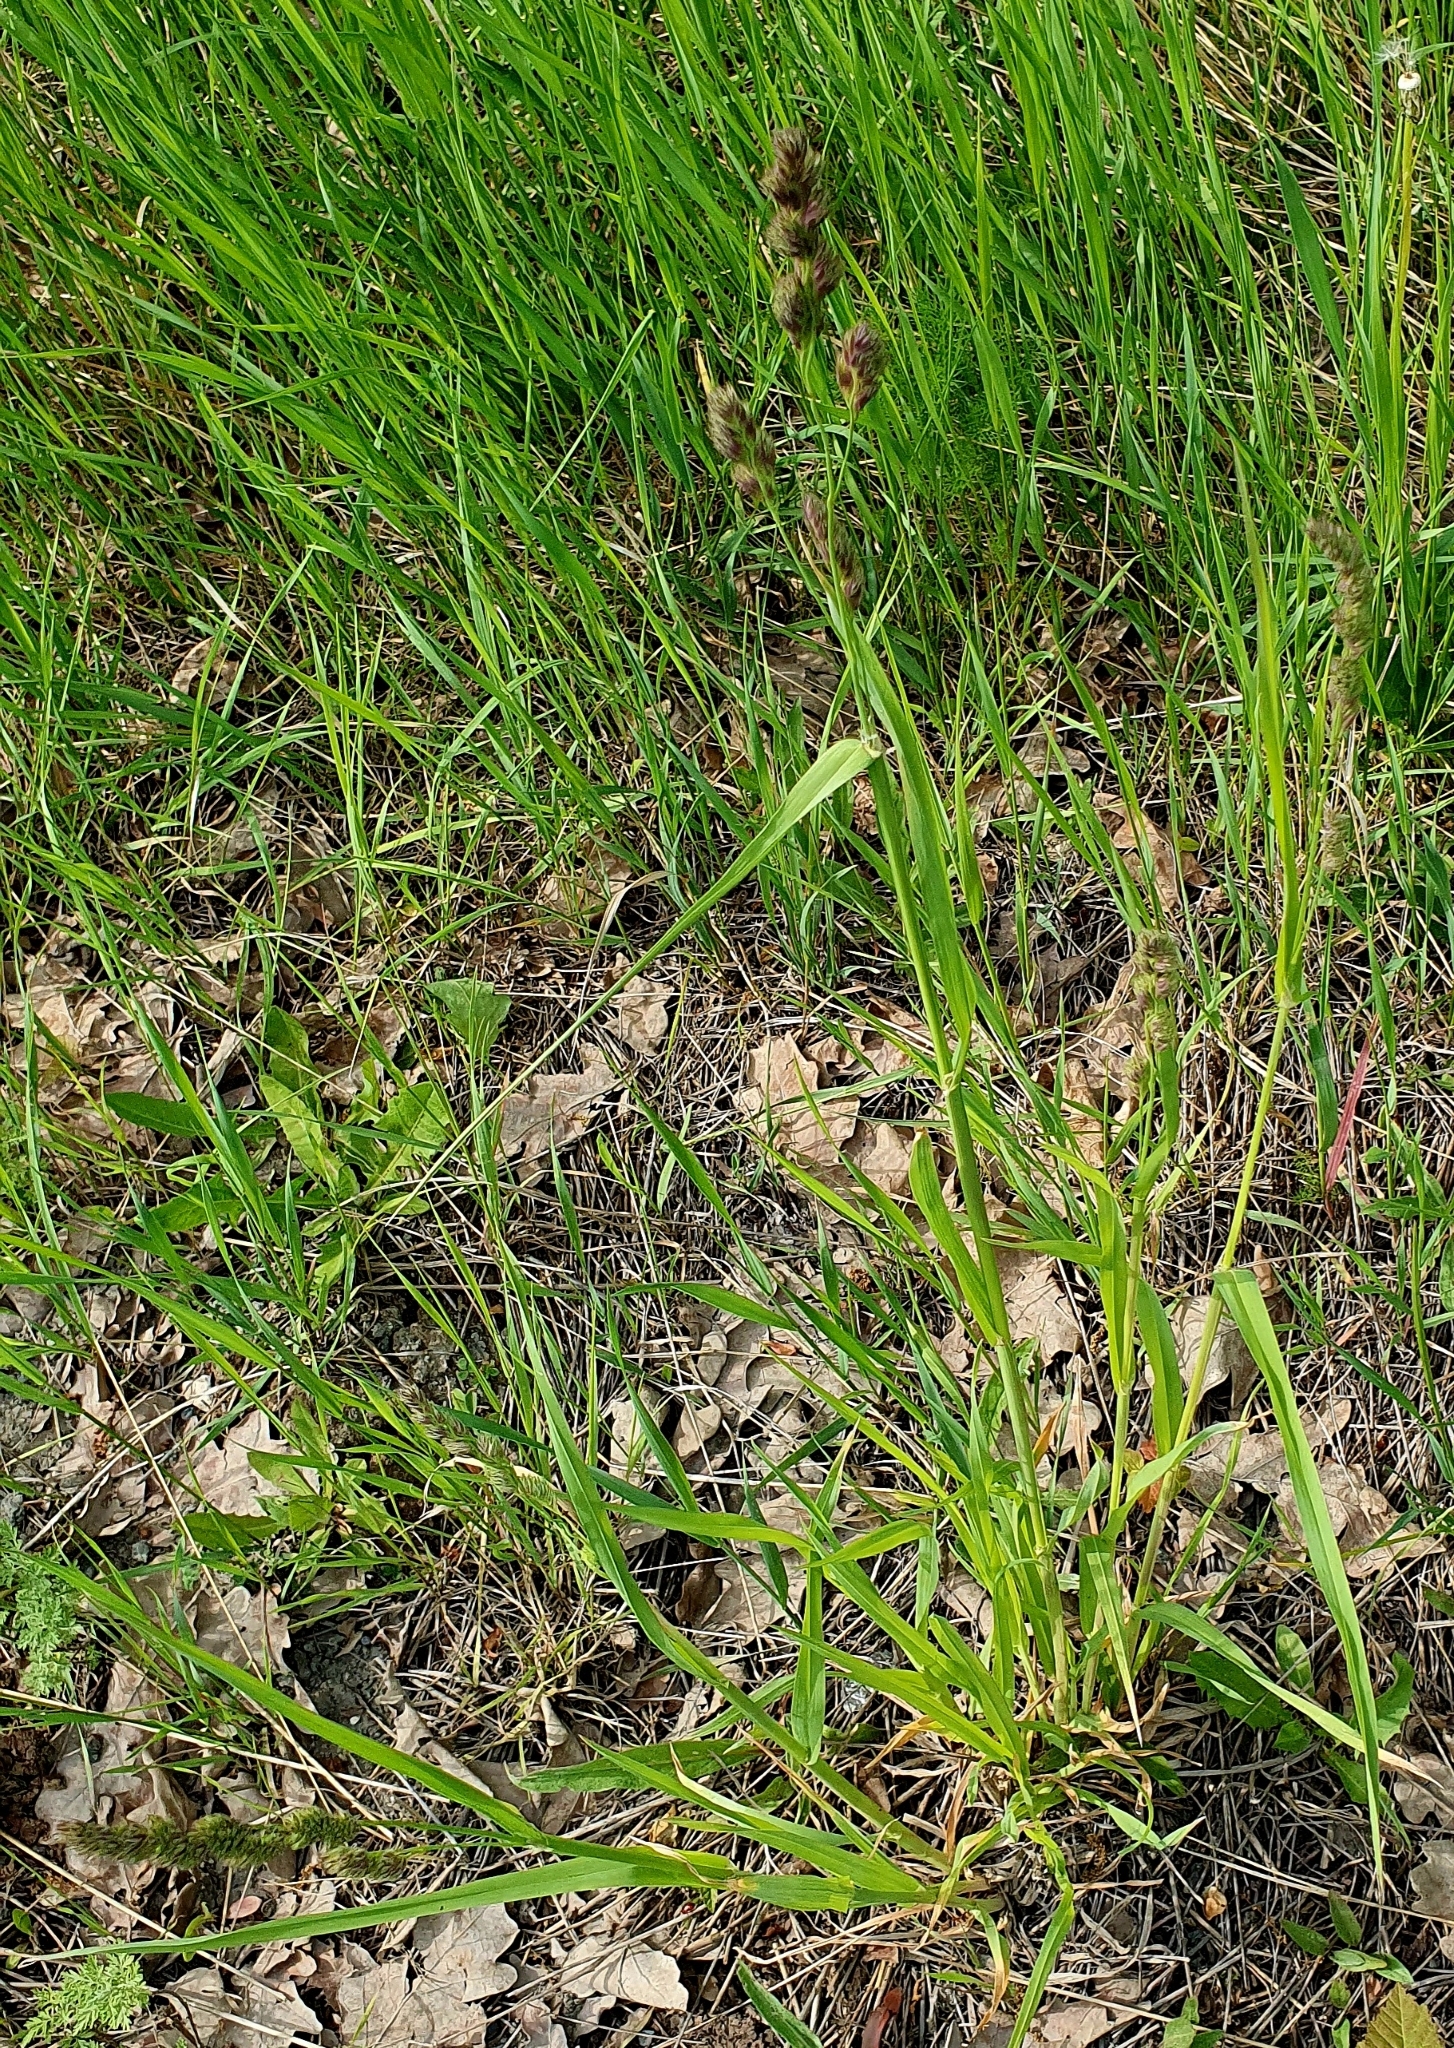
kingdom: Plantae
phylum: Tracheophyta
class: Liliopsida
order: Poales
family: Poaceae
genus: Dactylis
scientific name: Dactylis glomerata
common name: Orchardgrass
